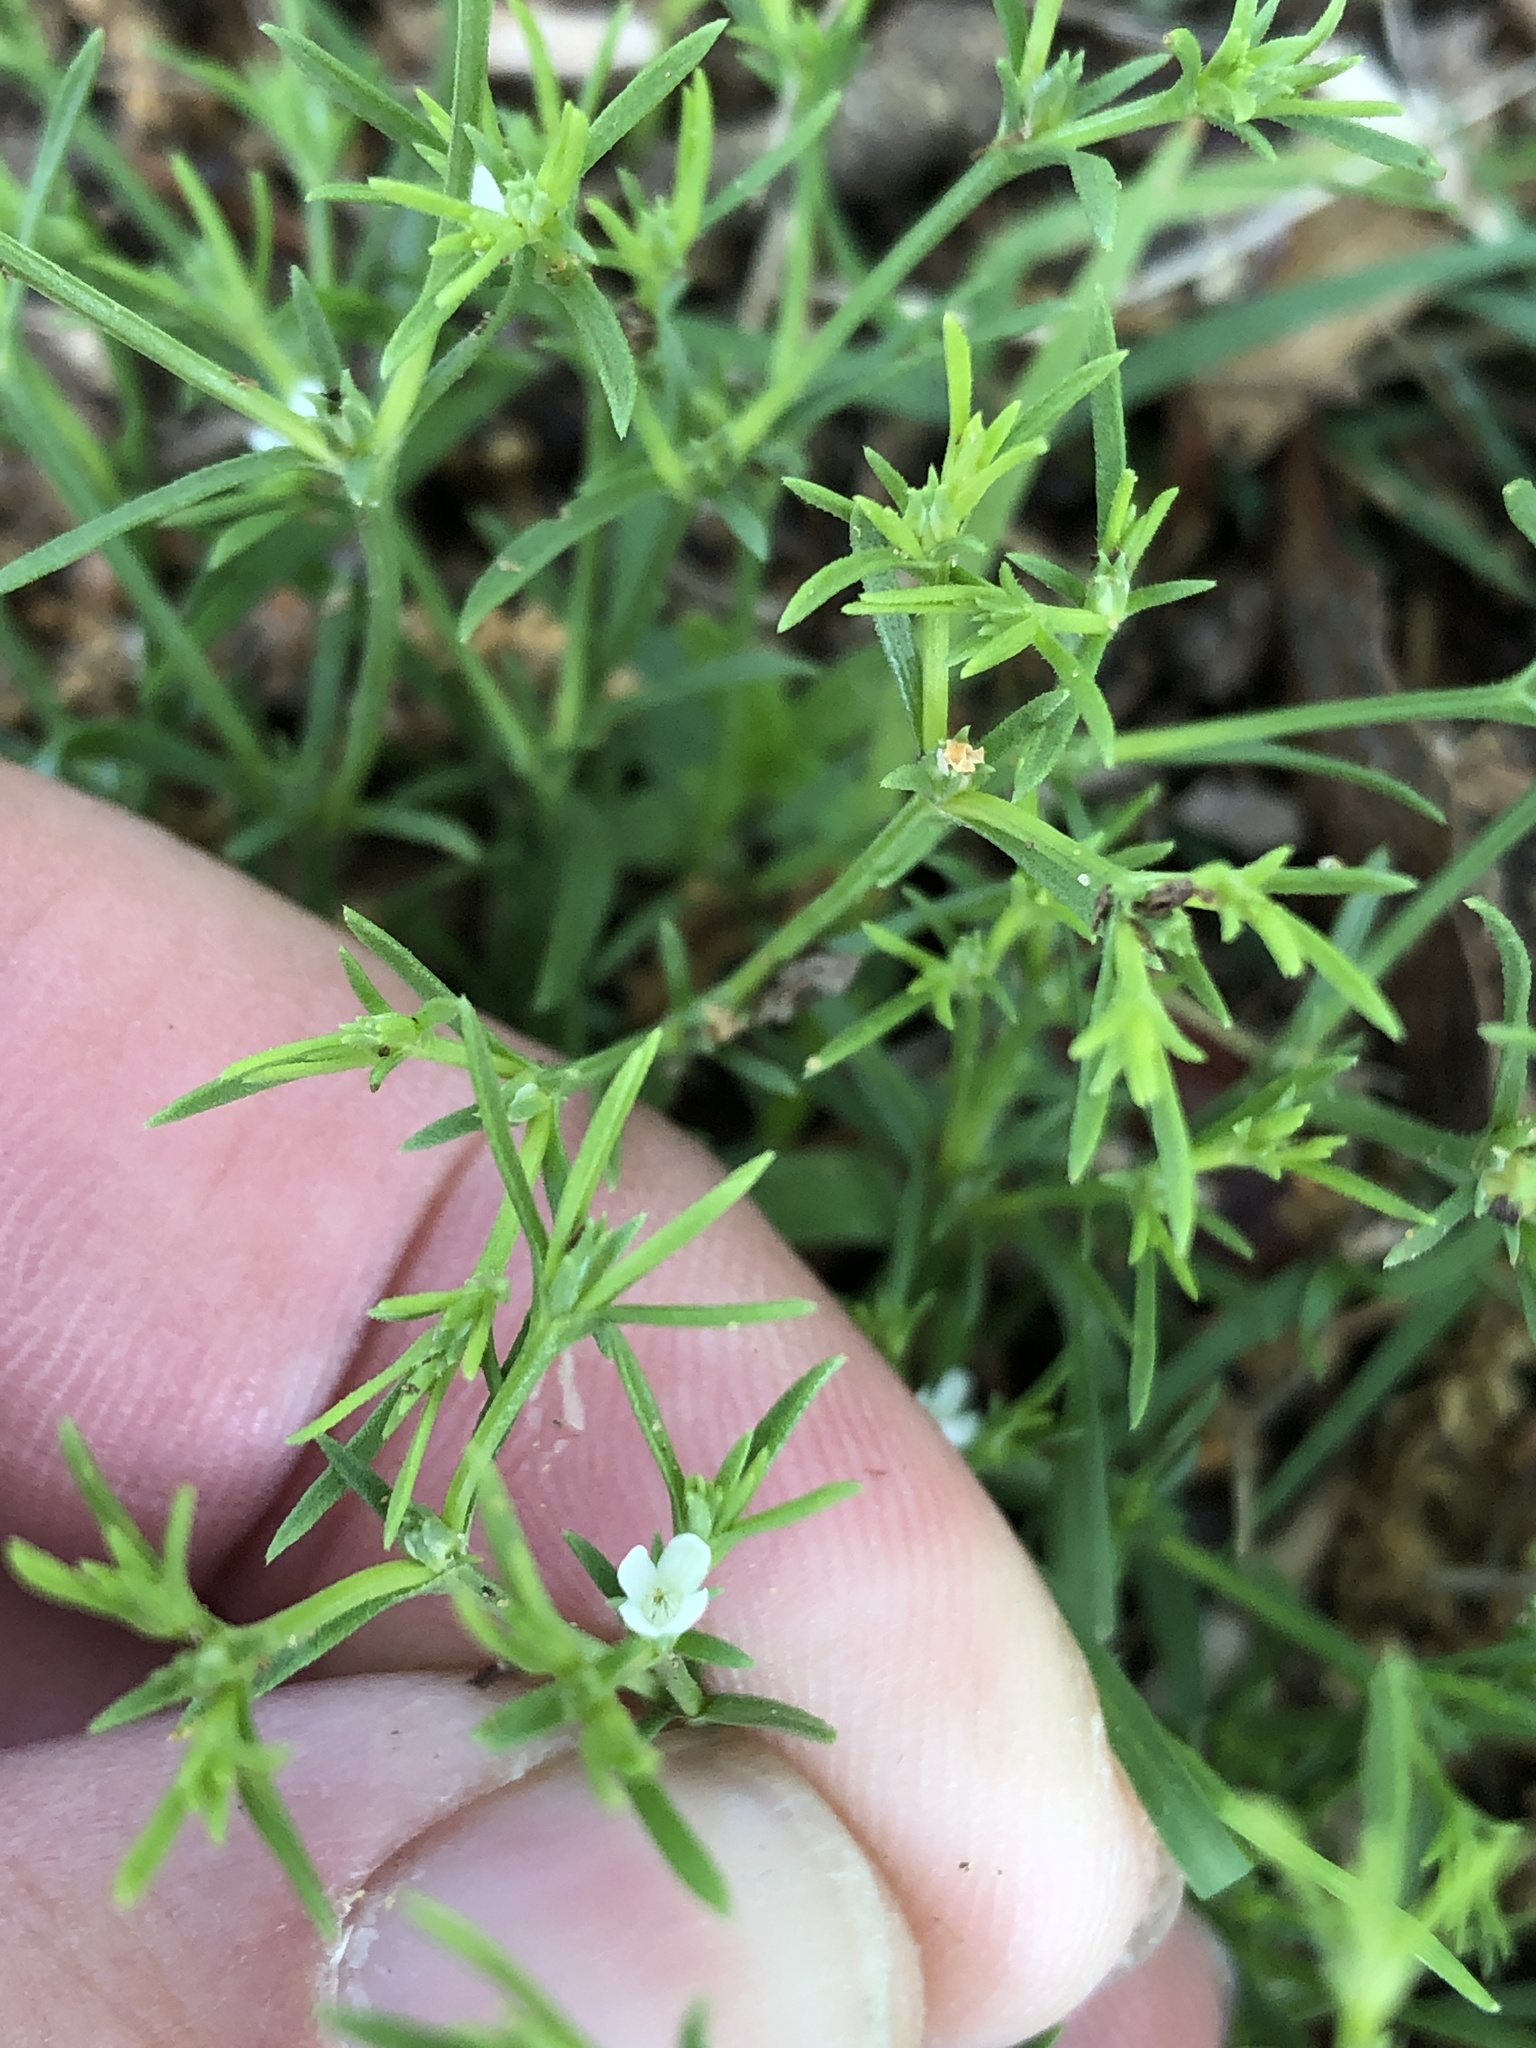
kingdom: Plantae
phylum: Tracheophyta
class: Magnoliopsida
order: Lamiales
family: Tetrachondraceae
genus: Polypremum
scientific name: Polypremum procumbens
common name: Juniper-leaf
